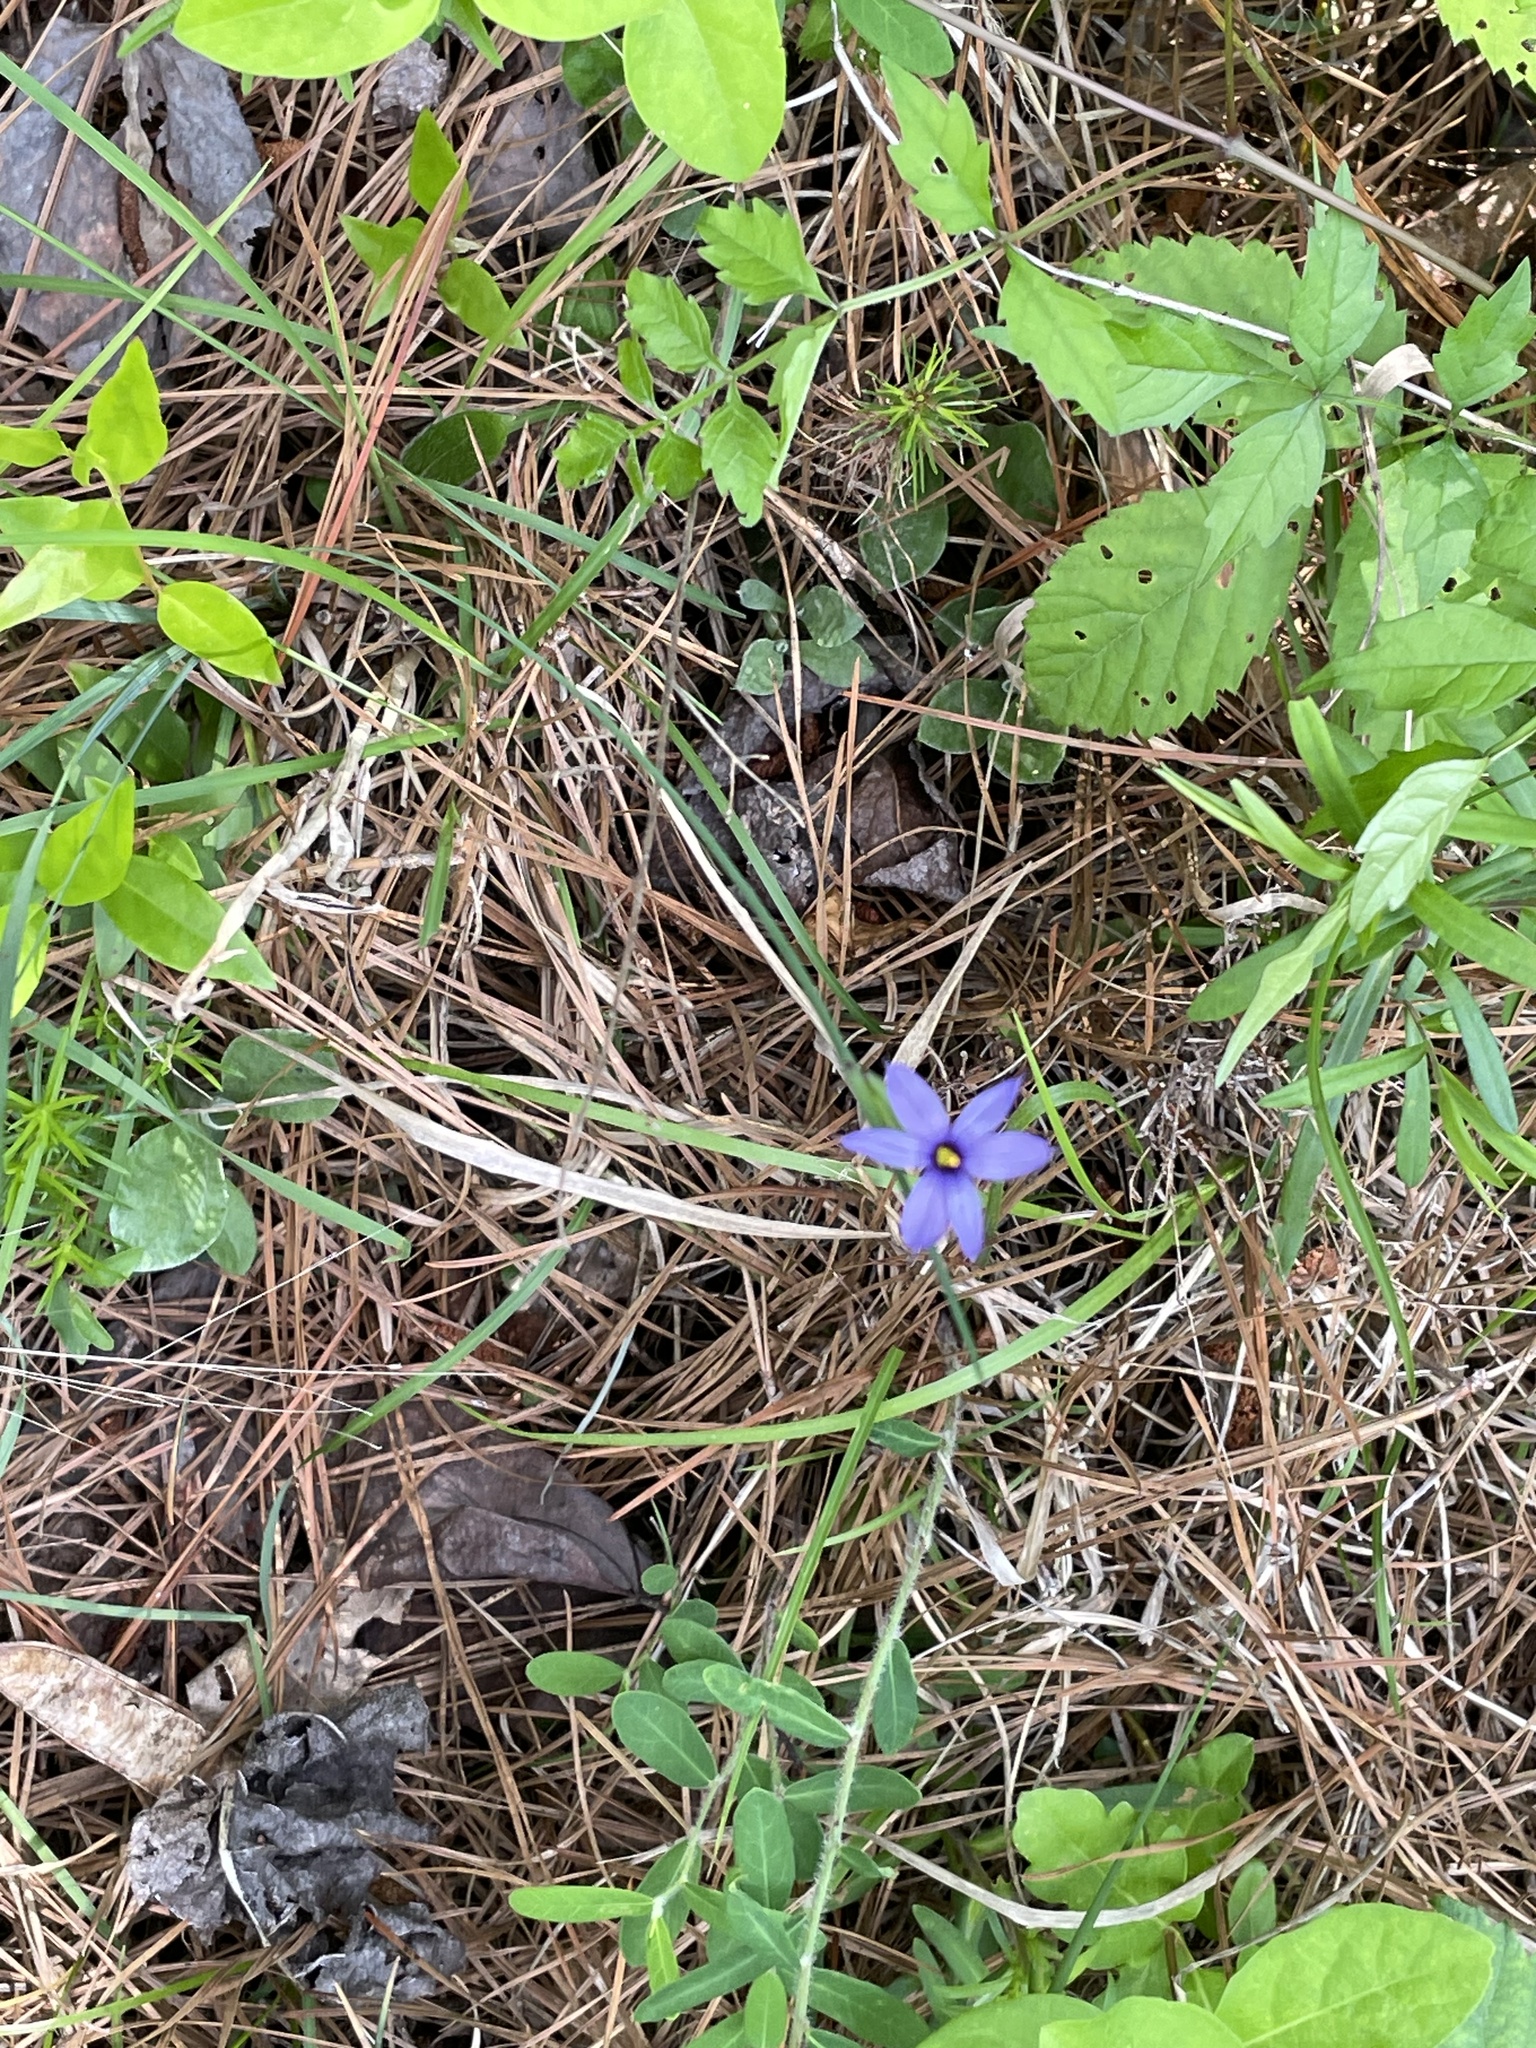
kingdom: Plantae
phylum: Tracheophyta
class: Liliopsida
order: Asparagales
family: Iridaceae
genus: Sisyrinchium
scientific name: Sisyrinchium mucronatum
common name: Eastern blue-eyed-grass
